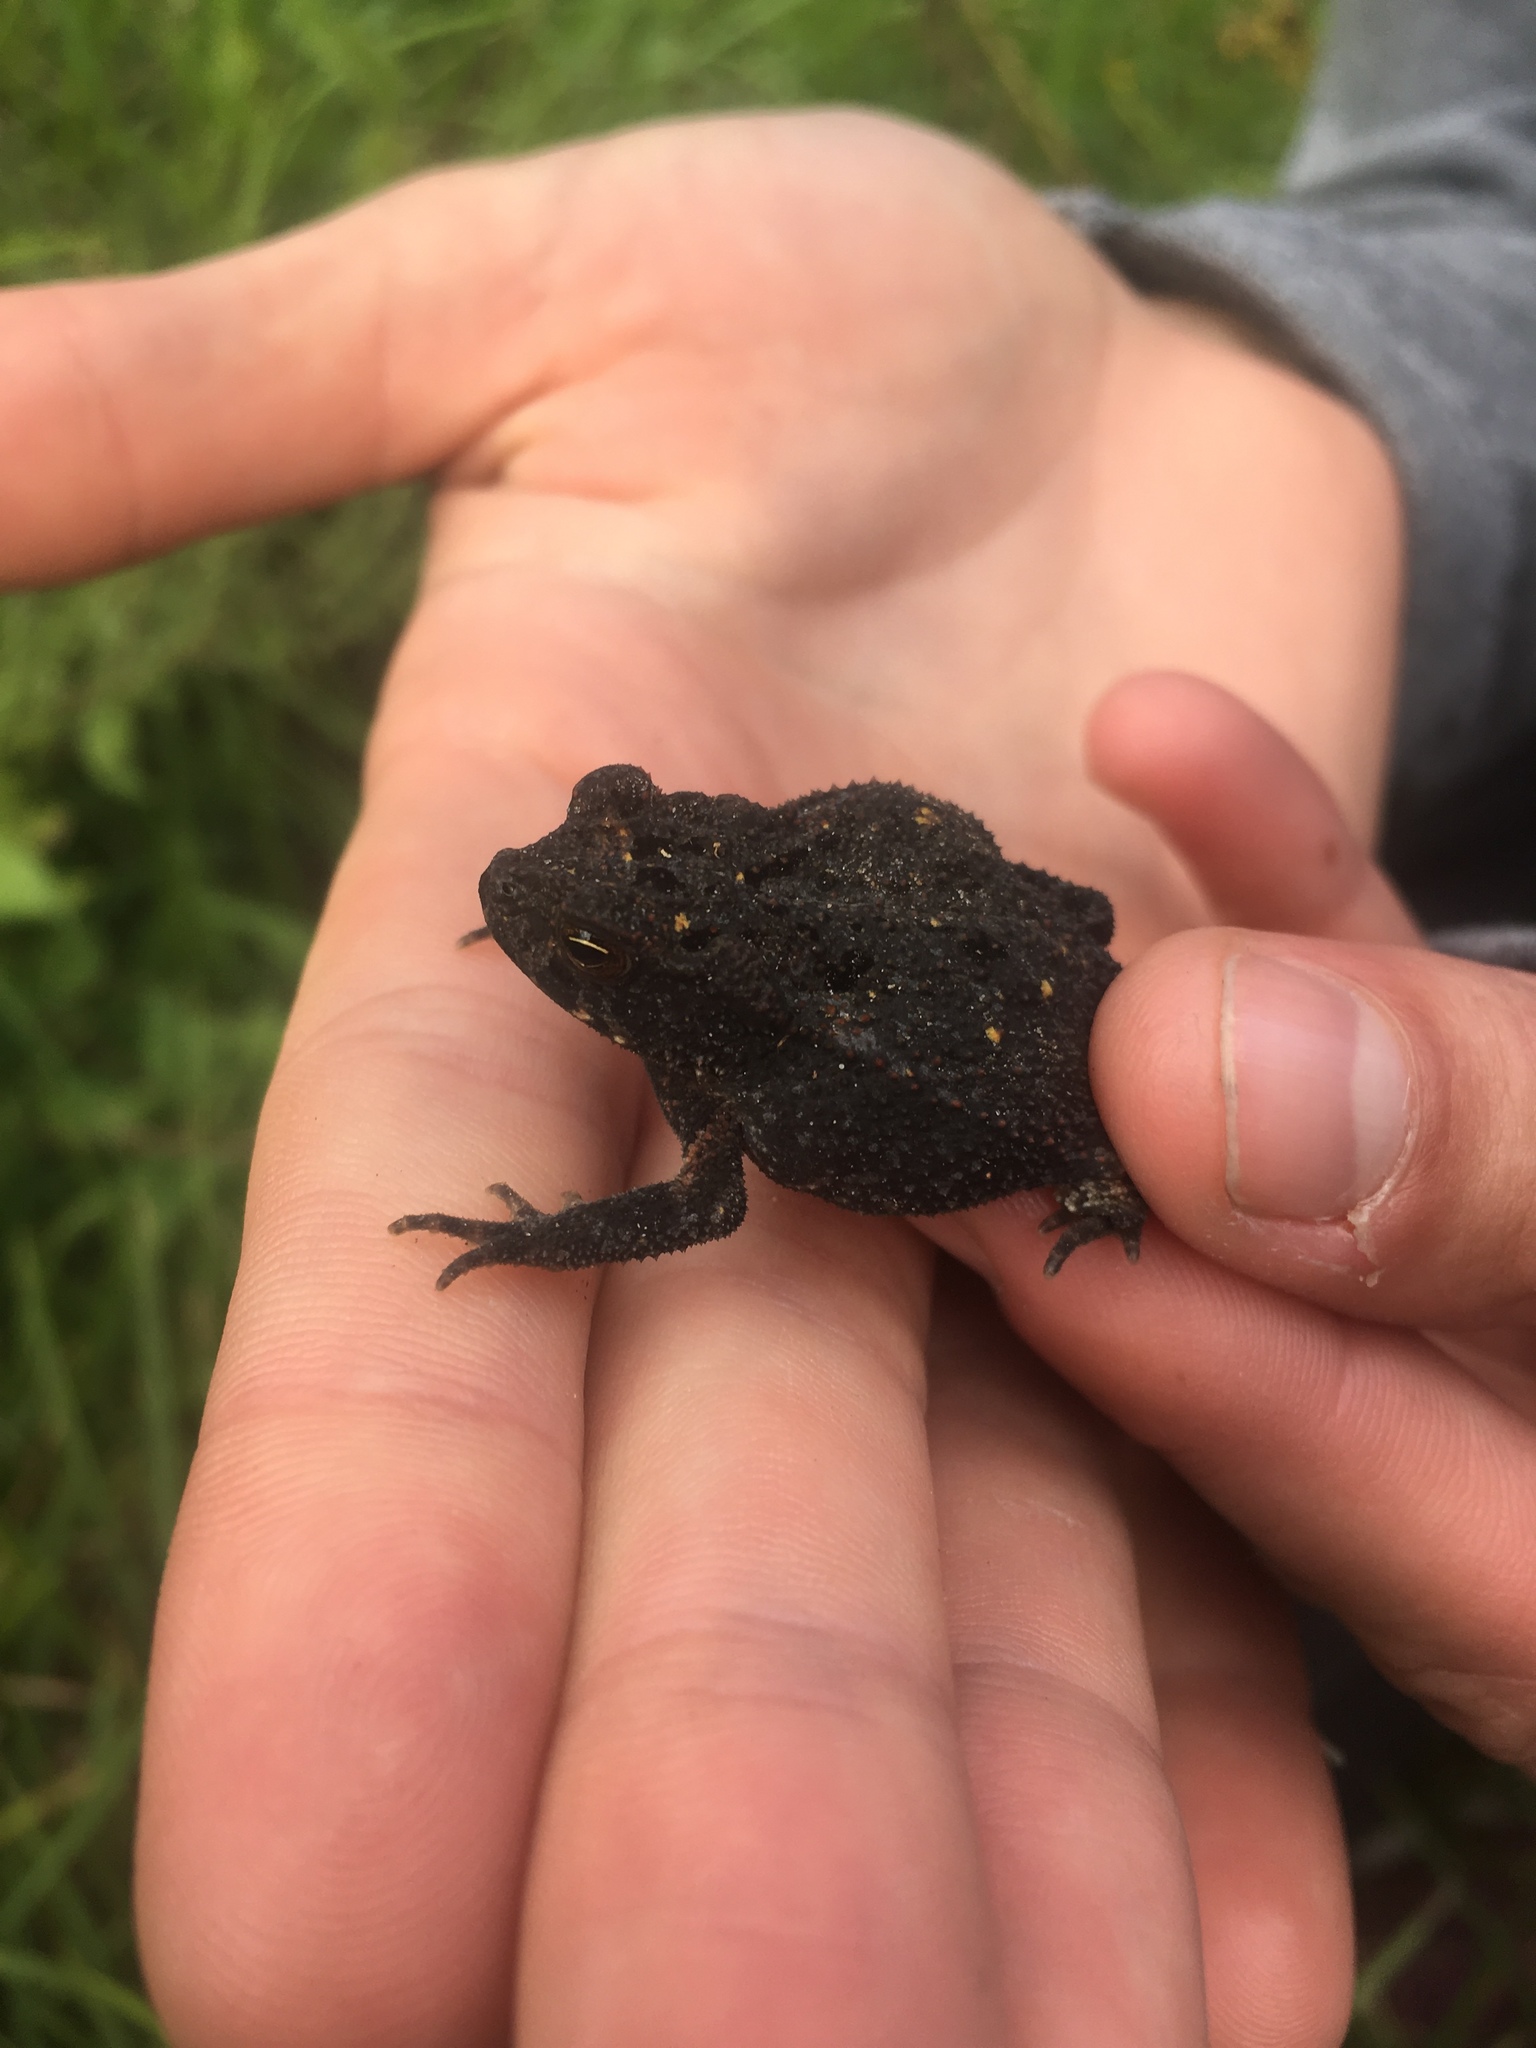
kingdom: Animalia
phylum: Chordata
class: Amphibia
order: Anura
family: Bufonidae
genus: Incilius
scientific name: Incilius nebulifer
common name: Gulf coast toad
